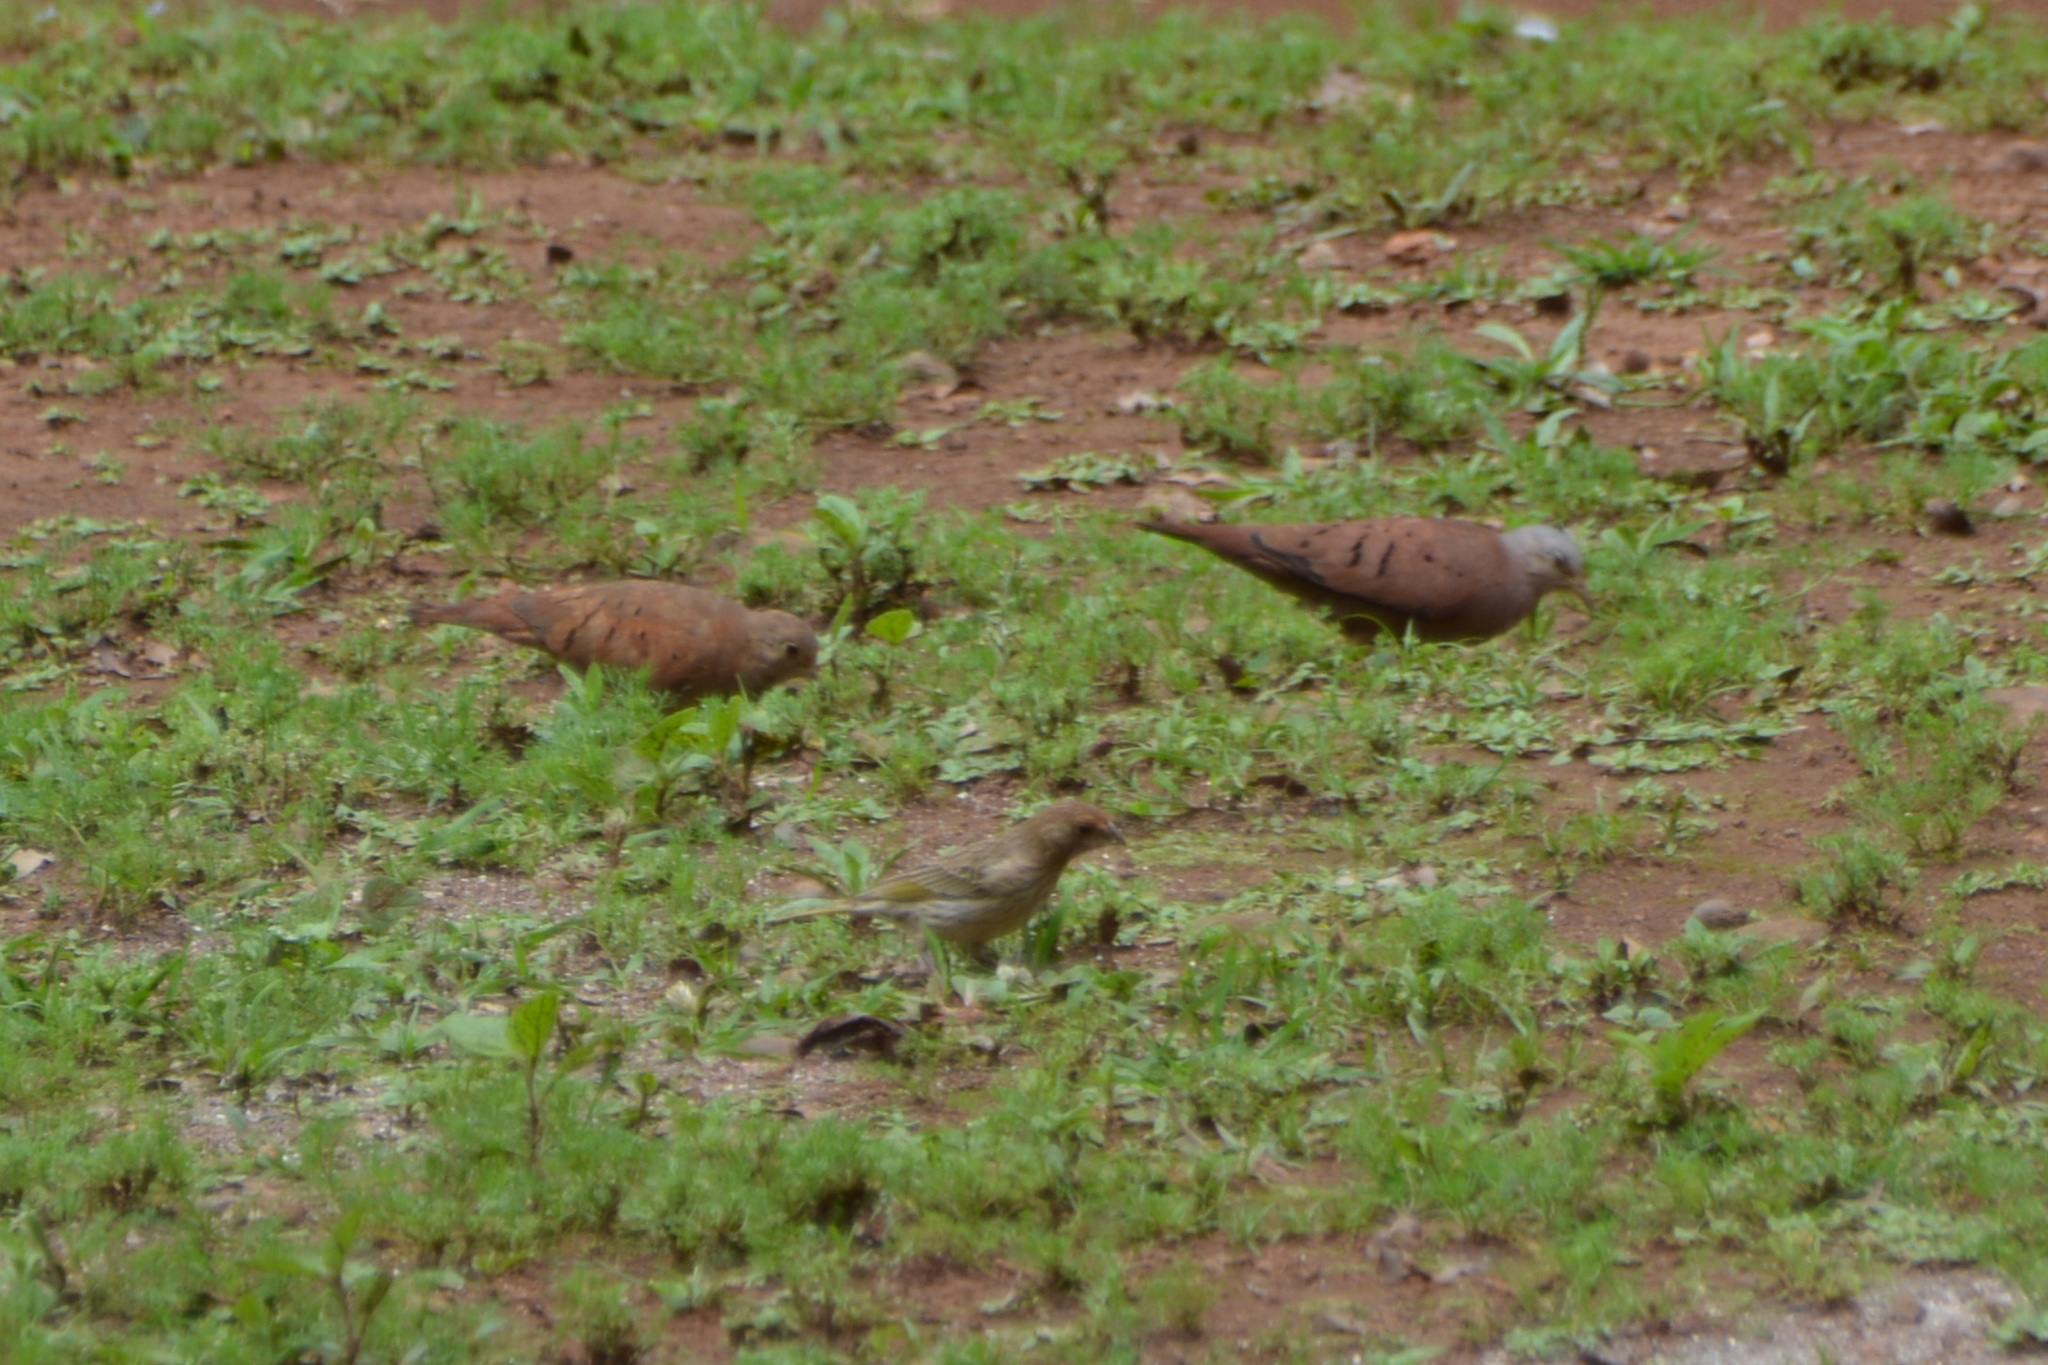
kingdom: Animalia
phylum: Chordata
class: Aves
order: Passeriformes
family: Thraupidae
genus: Sicalis
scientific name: Sicalis flaveola
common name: Saffron finch
